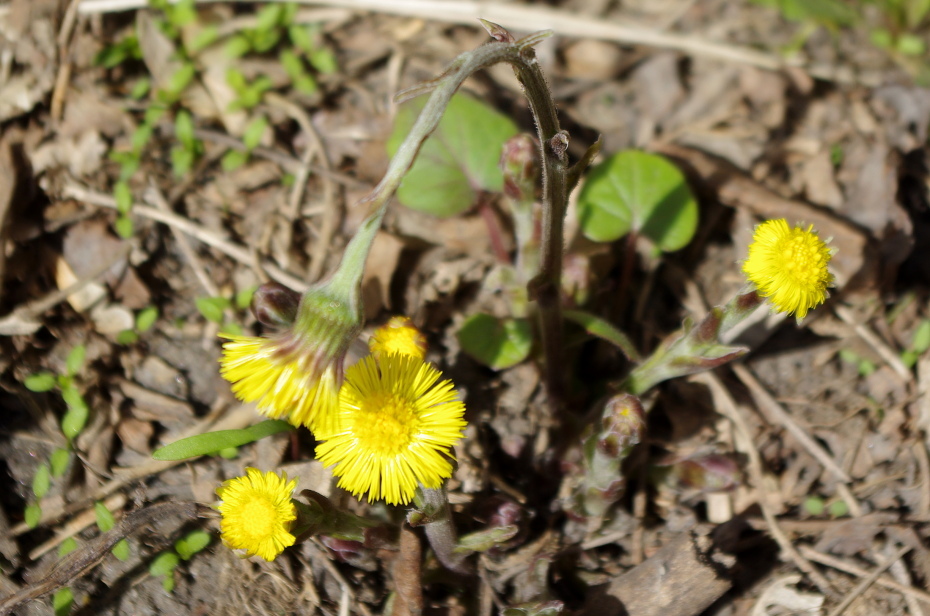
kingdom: Plantae
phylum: Tracheophyta
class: Magnoliopsida
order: Asterales
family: Asteraceae
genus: Tussilago
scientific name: Tussilago farfara
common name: Coltsfoot
